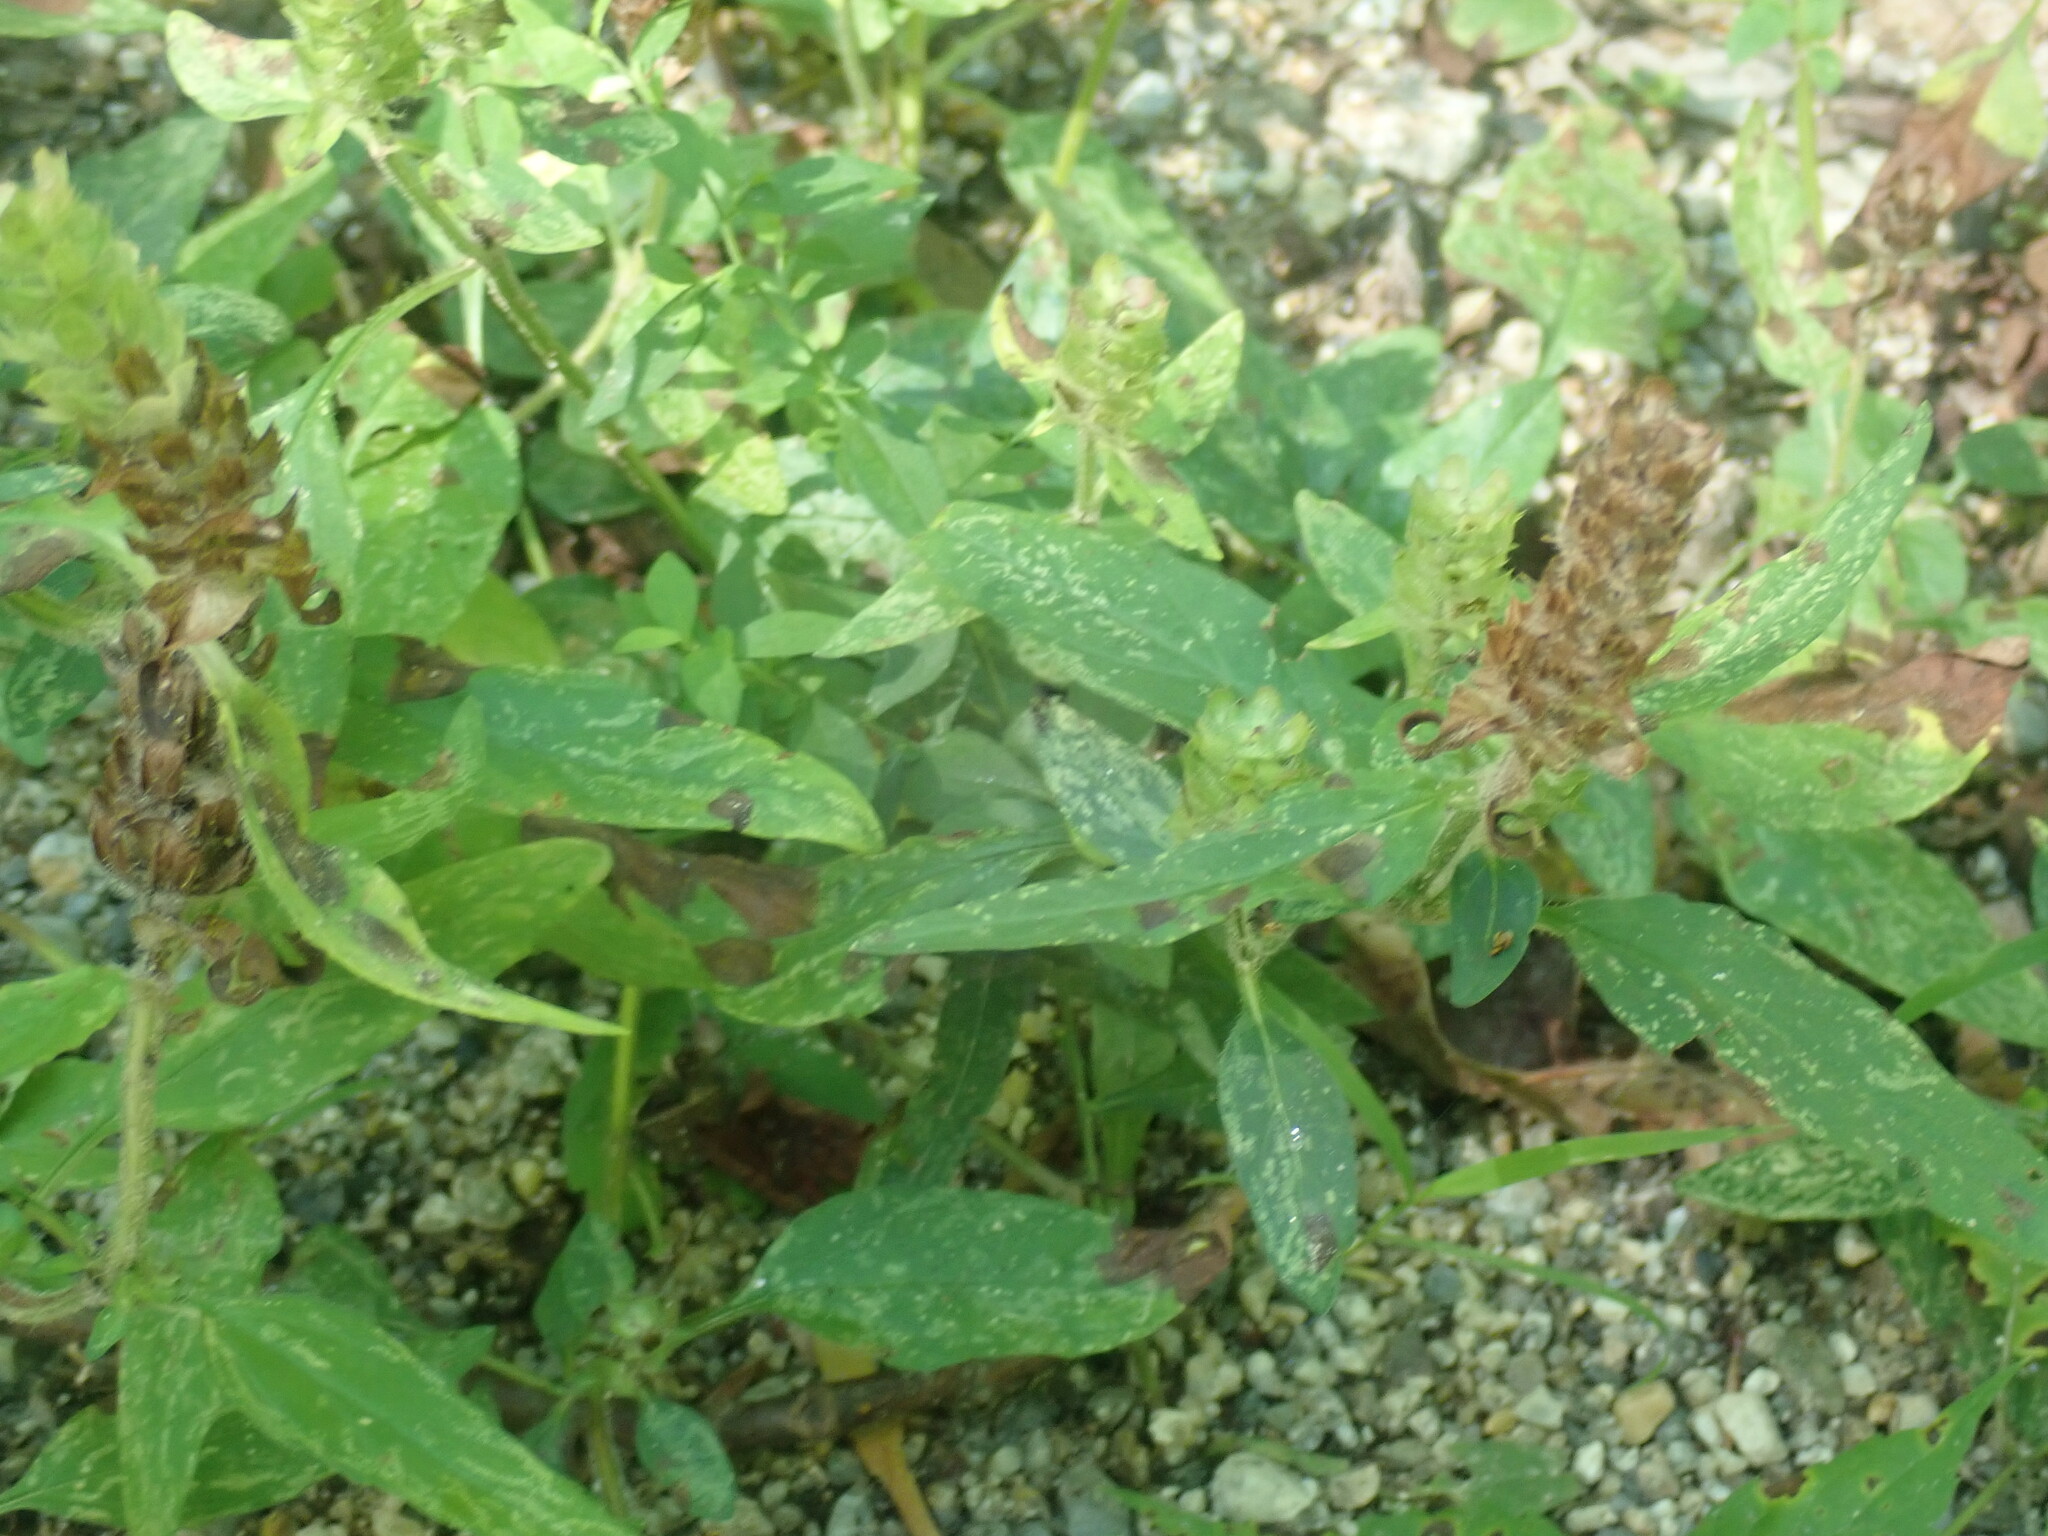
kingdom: Plantae
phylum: Tracheophyta
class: Magnoliopsida
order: Lamiales
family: Lamiaceae
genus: Prunella
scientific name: Prunella vulgaris
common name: Heal-all
